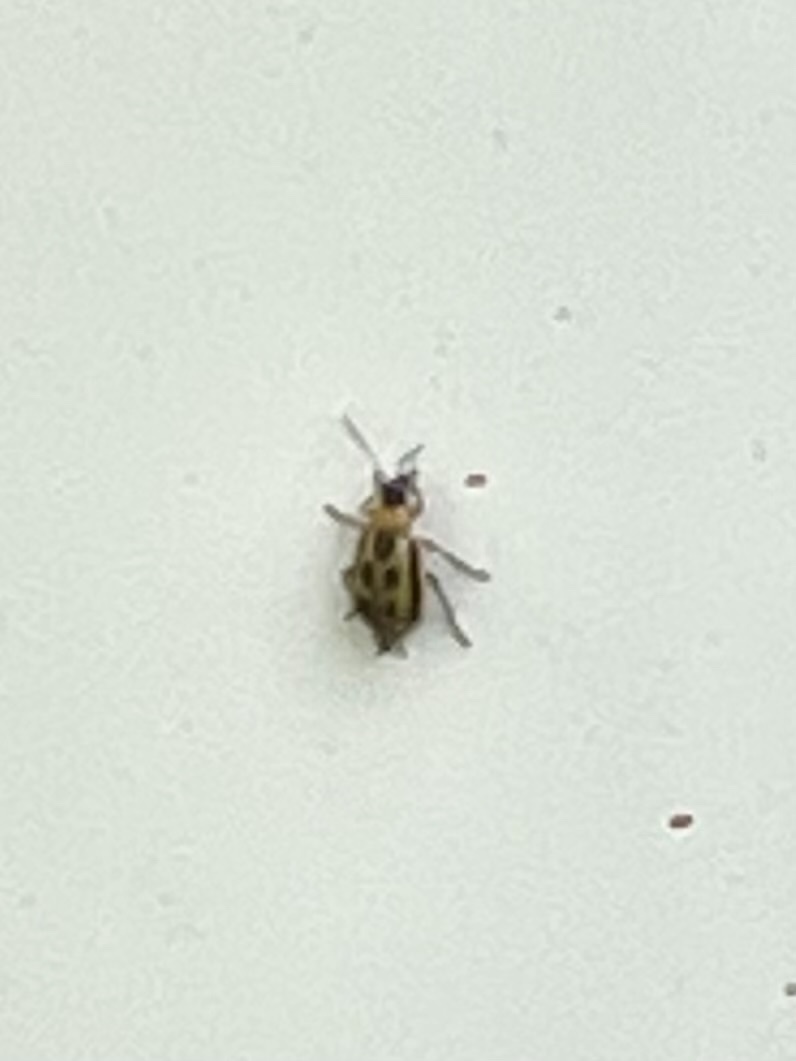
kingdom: Animalia
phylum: Arthropoda
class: Insecta
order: Coleoptera
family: Chrysomelidae
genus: Cerotoma
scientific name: Cerotoma trifurcata
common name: Bean leaf beetle
